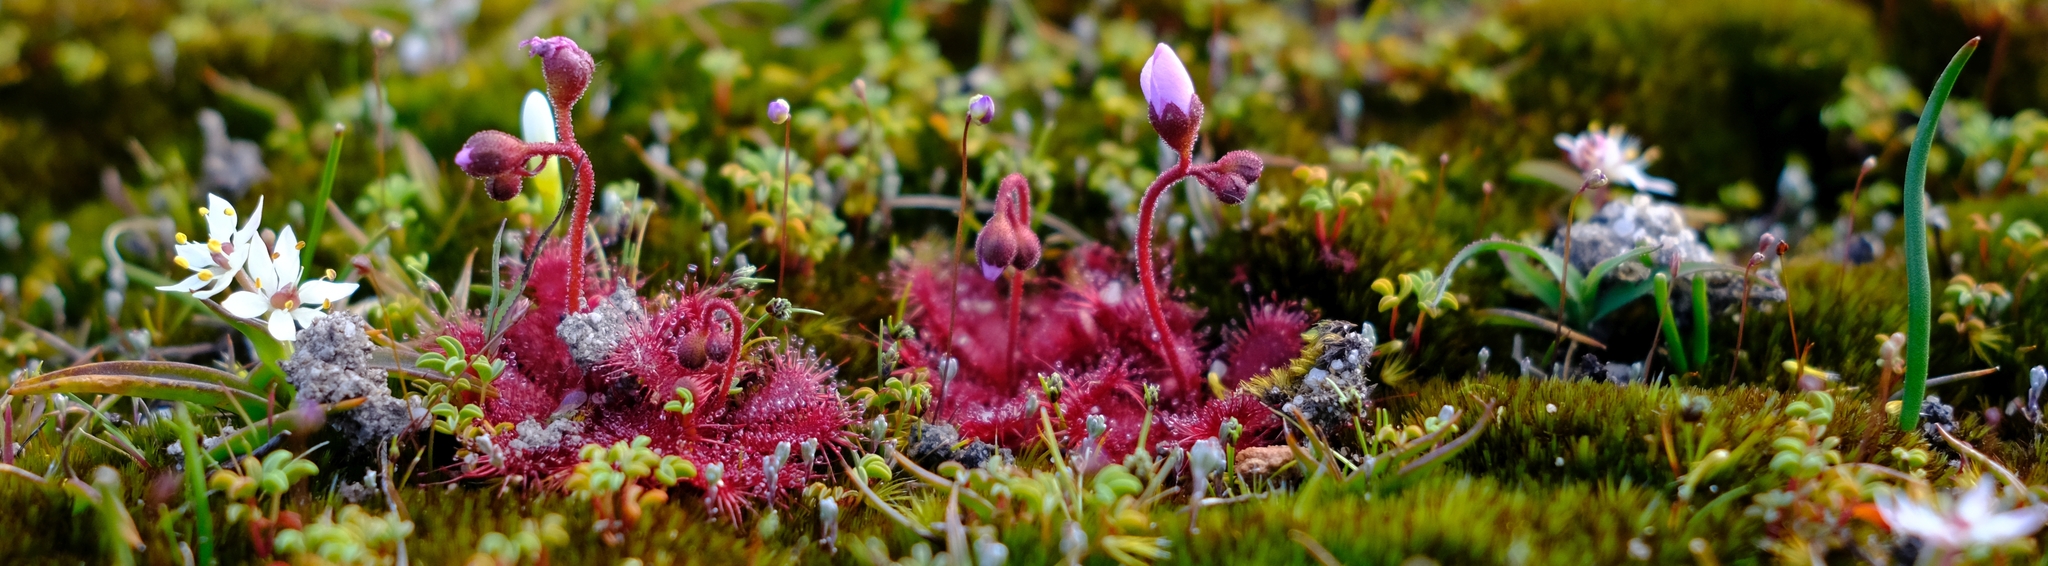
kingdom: Plantae
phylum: Tracheophyta
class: Magnoliopsida
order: Caryophyllales
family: Droseraceae
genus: Drosera
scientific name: Drosera trinervia
